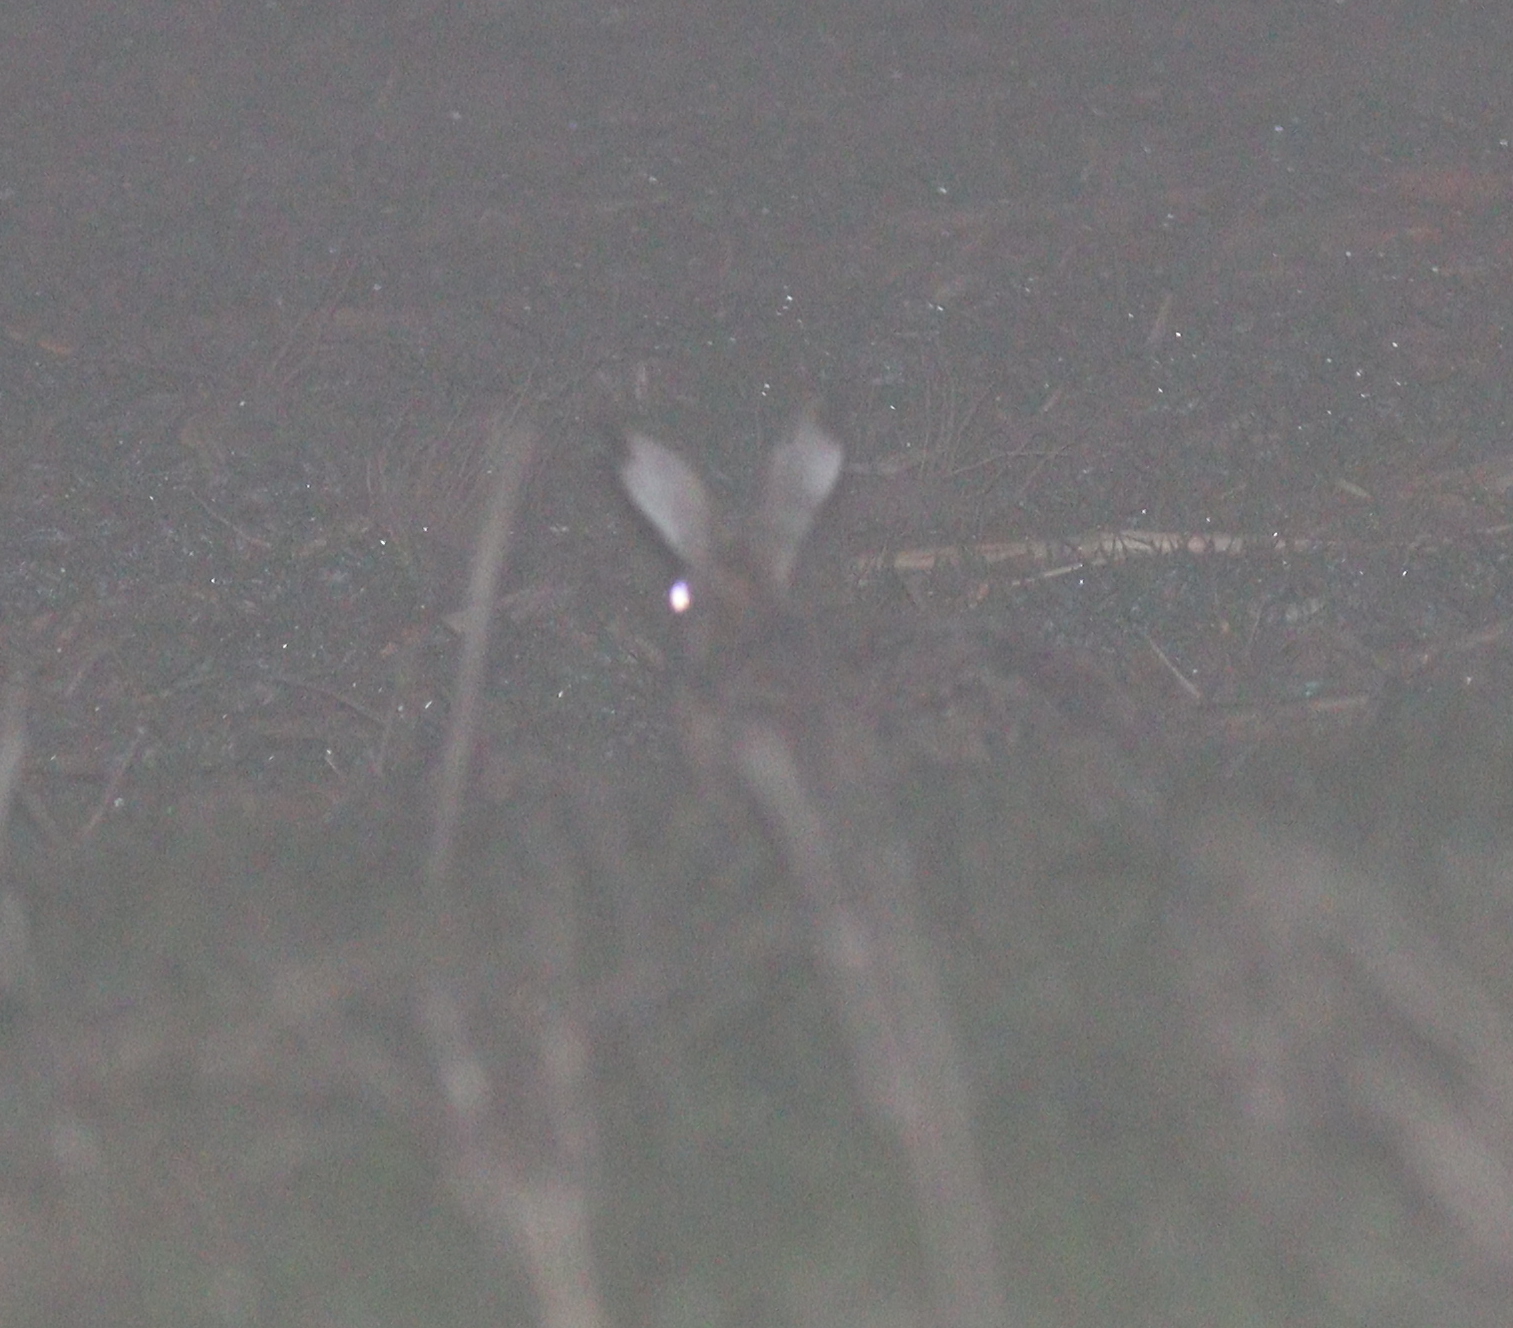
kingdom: Animalia
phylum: Chordata
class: Mammalia
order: Lagomorpha
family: Leporidae
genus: Lepus
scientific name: Lepus europaeus
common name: European hare
